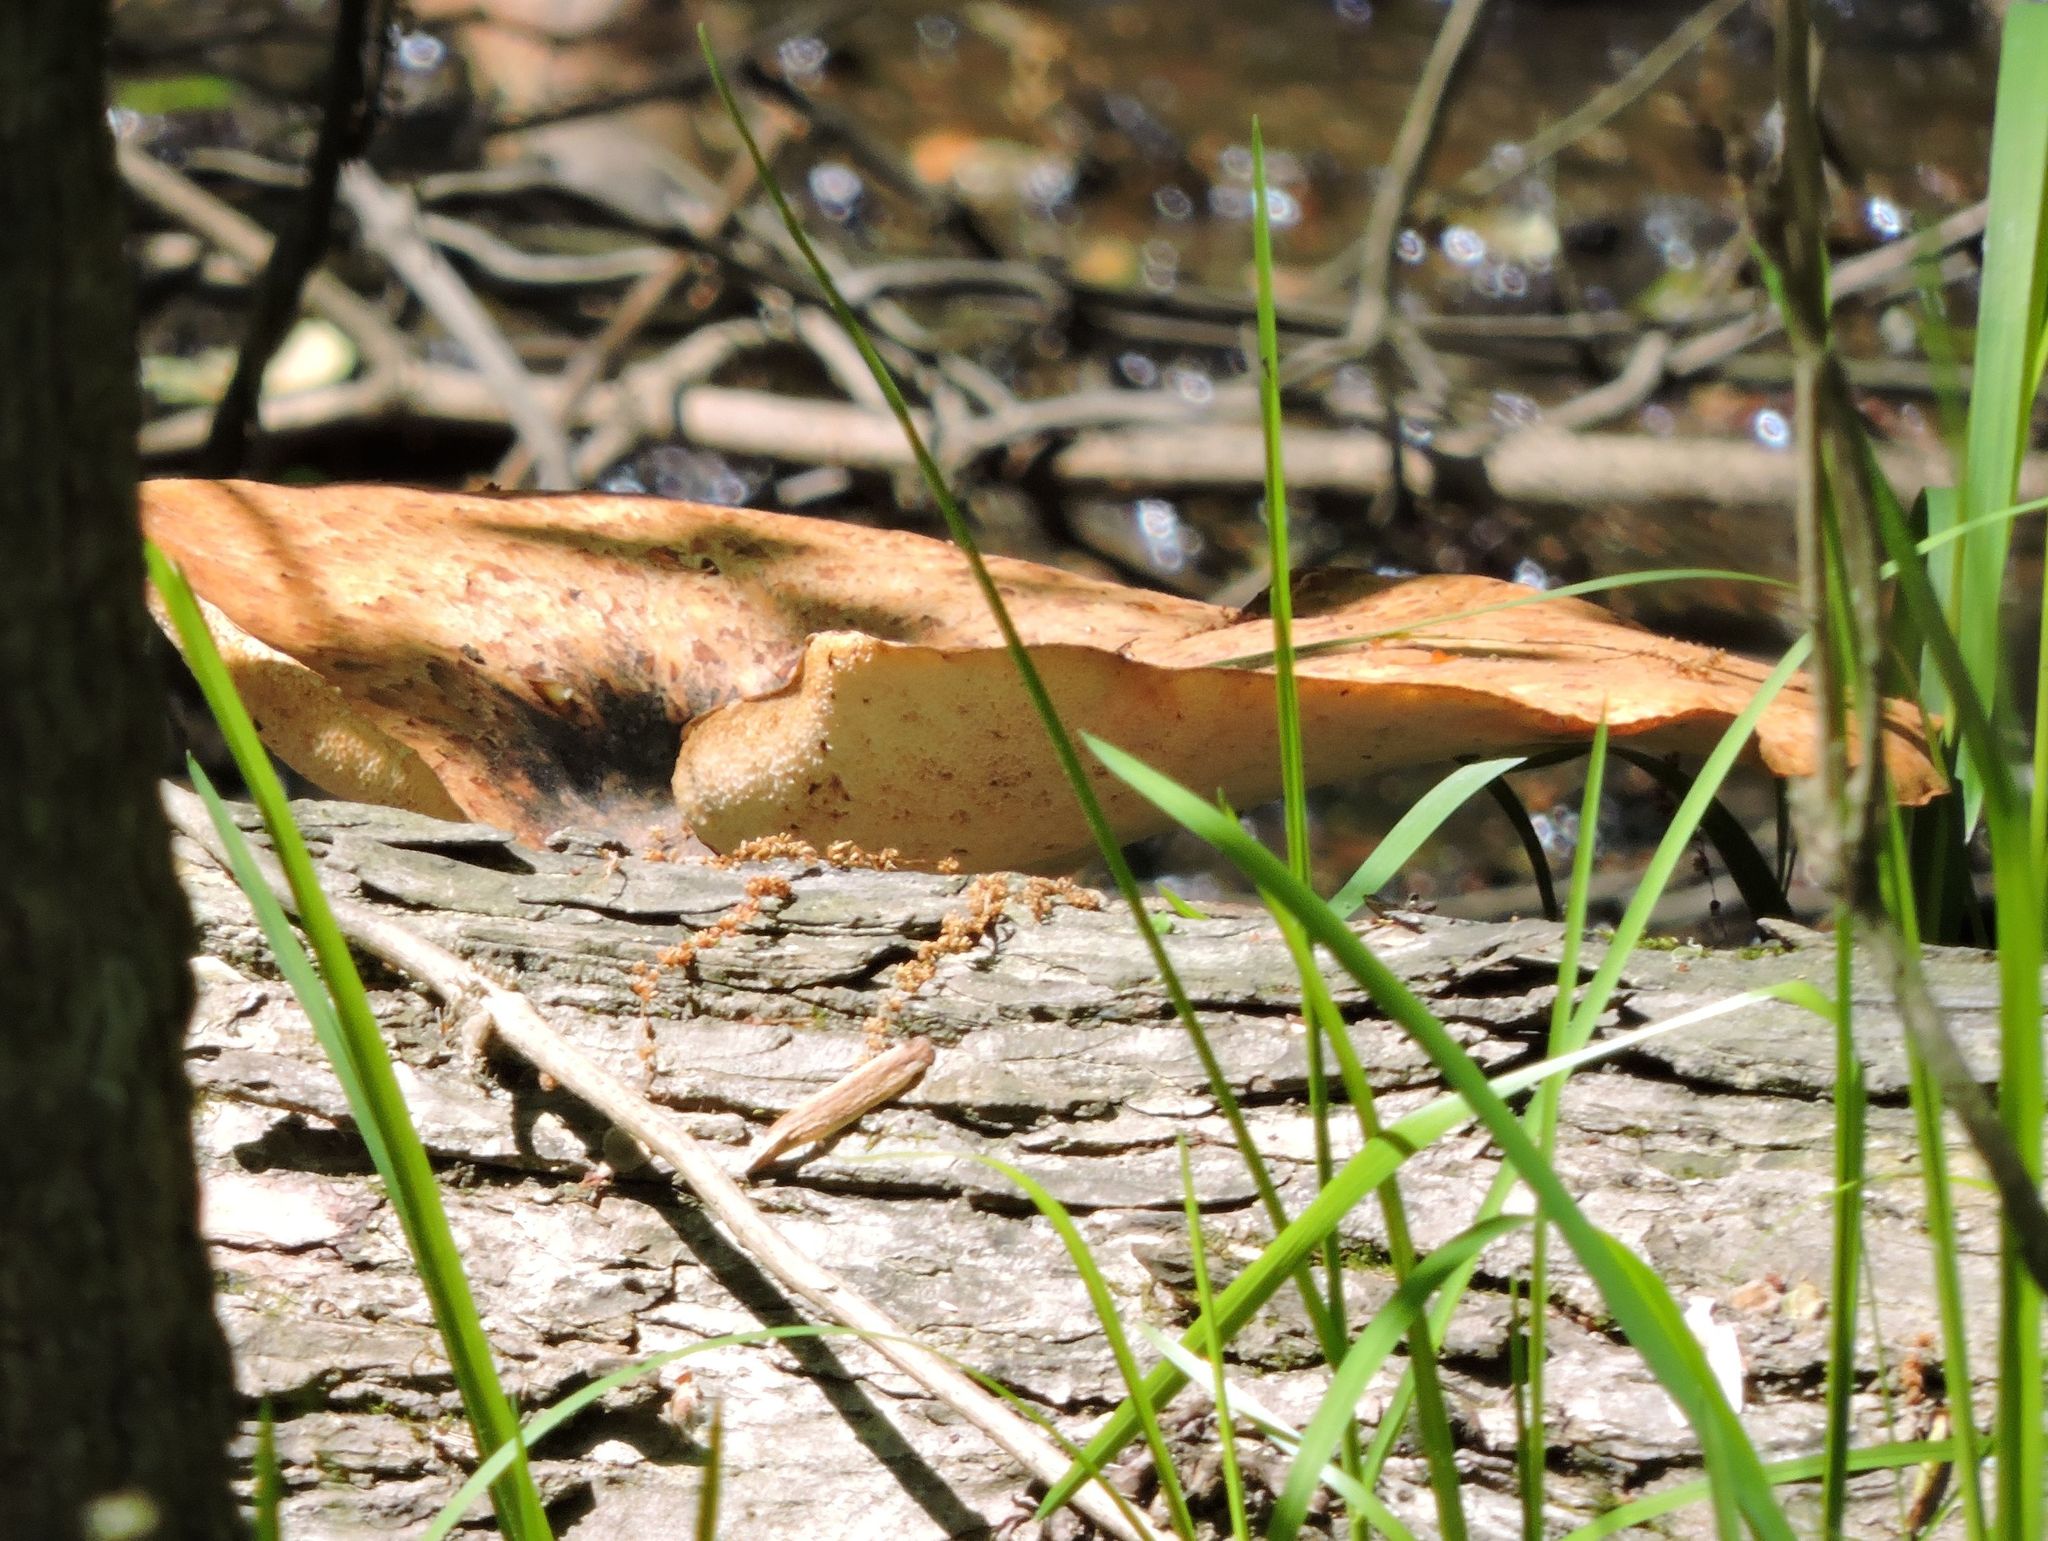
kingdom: Fungi
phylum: Basidiomycota
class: Agaricomycetes
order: Polyporales
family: Polyporaceae
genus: Cerioporus
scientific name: Cerioporus squamosus
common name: Dryad's saddle
